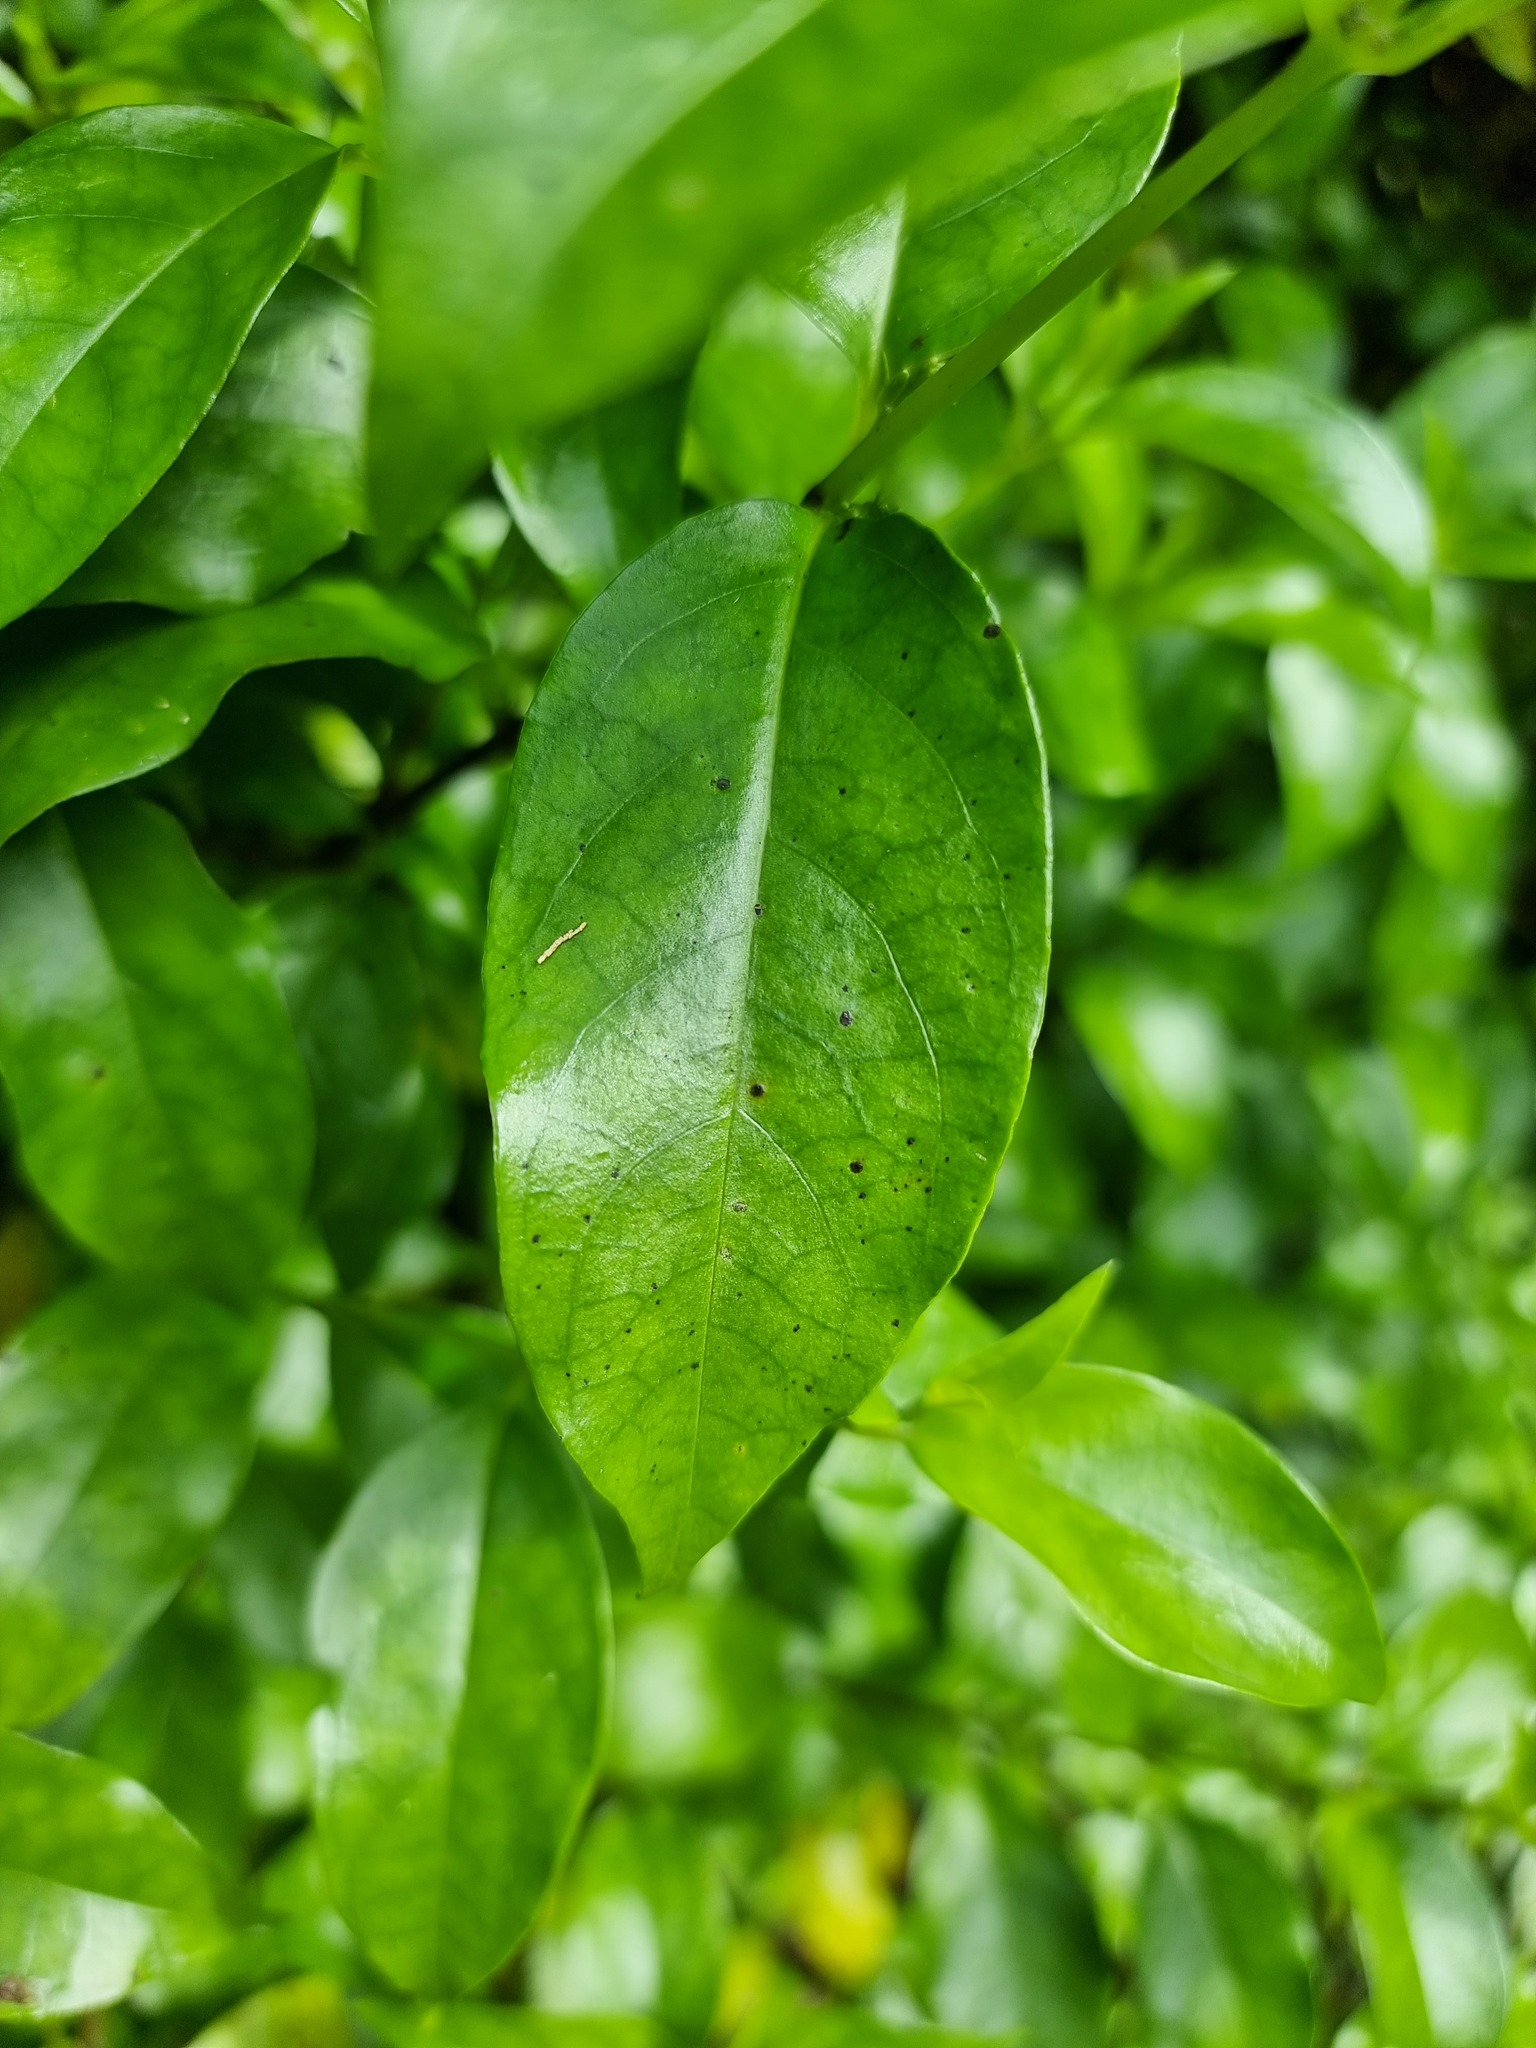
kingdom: Plantae
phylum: Tracheophyta
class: Magnoliopsida
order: Gentianales
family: Loganiaceae
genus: Geniostoma
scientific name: Geniostoma ligustrifolium
